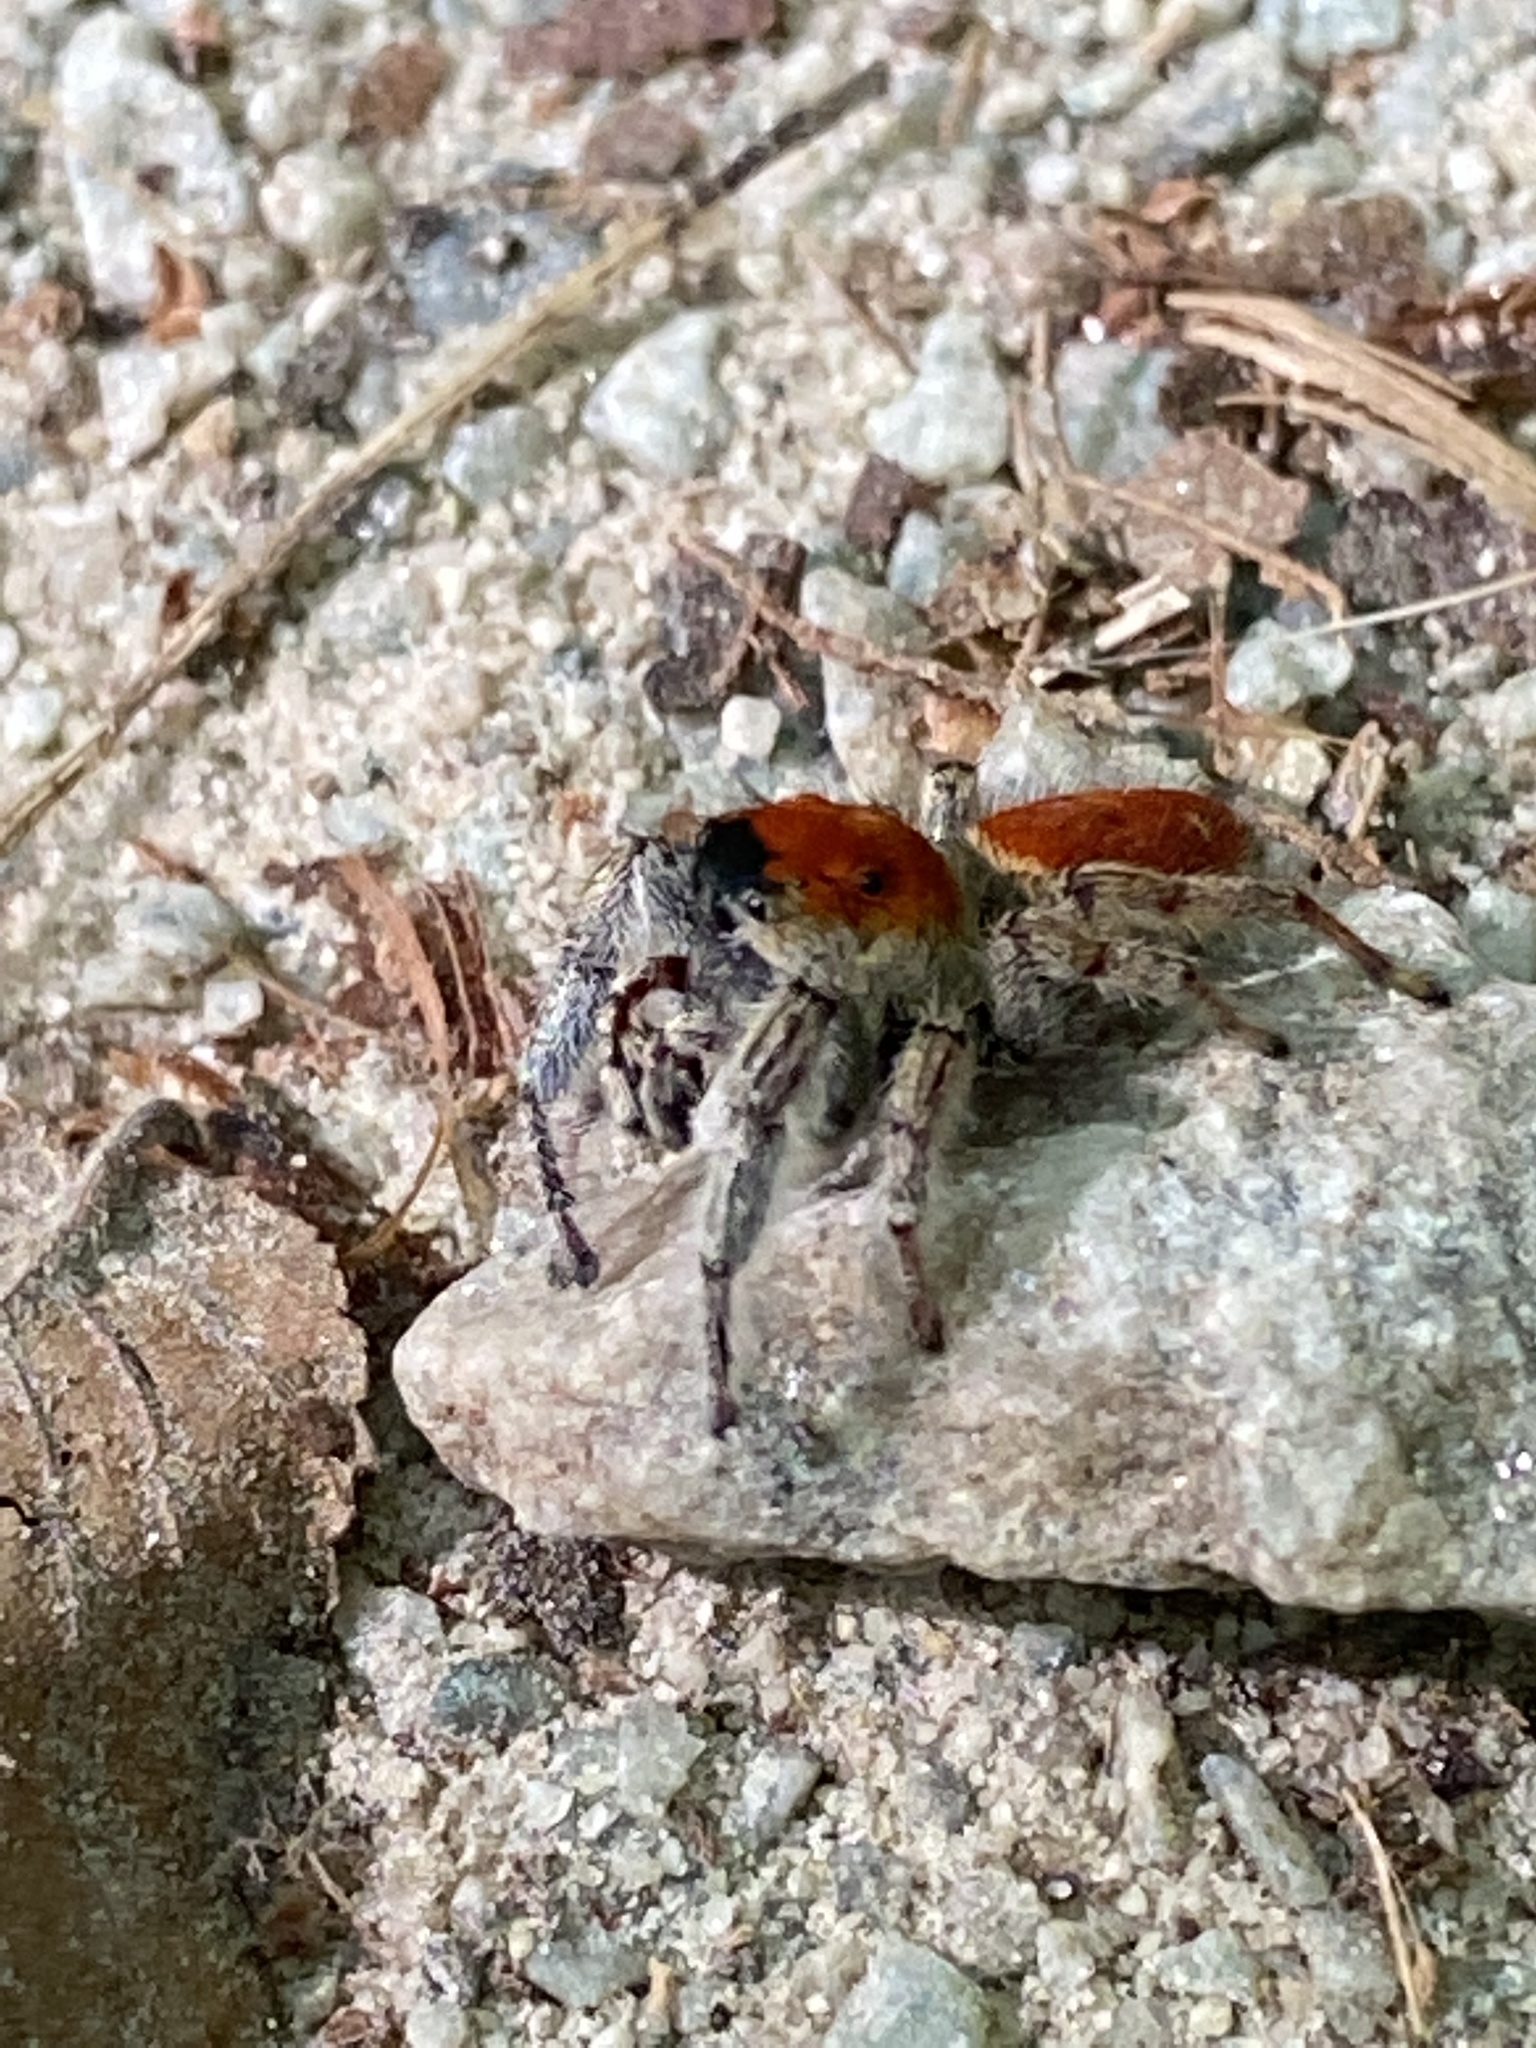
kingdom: Animalia
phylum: Arthropoda
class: Arachnida
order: Araneae
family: Salticidae
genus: Phidippus
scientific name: Phidippus whitmani
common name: Whitman's jumping spider
